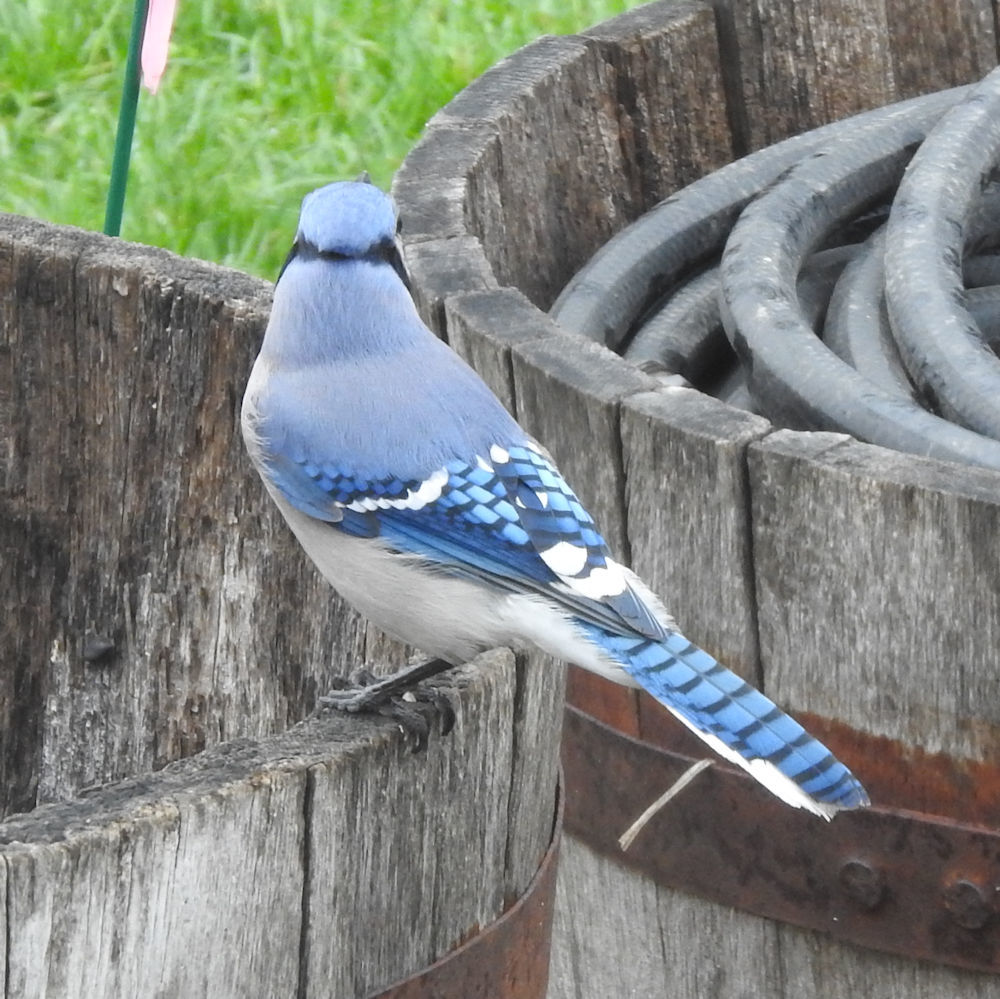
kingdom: Animalia
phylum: Chordata
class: Aves
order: Passeriformes
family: Corvidae
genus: Cyanocitta
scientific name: Cyanocitta cristata
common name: Blue jay
